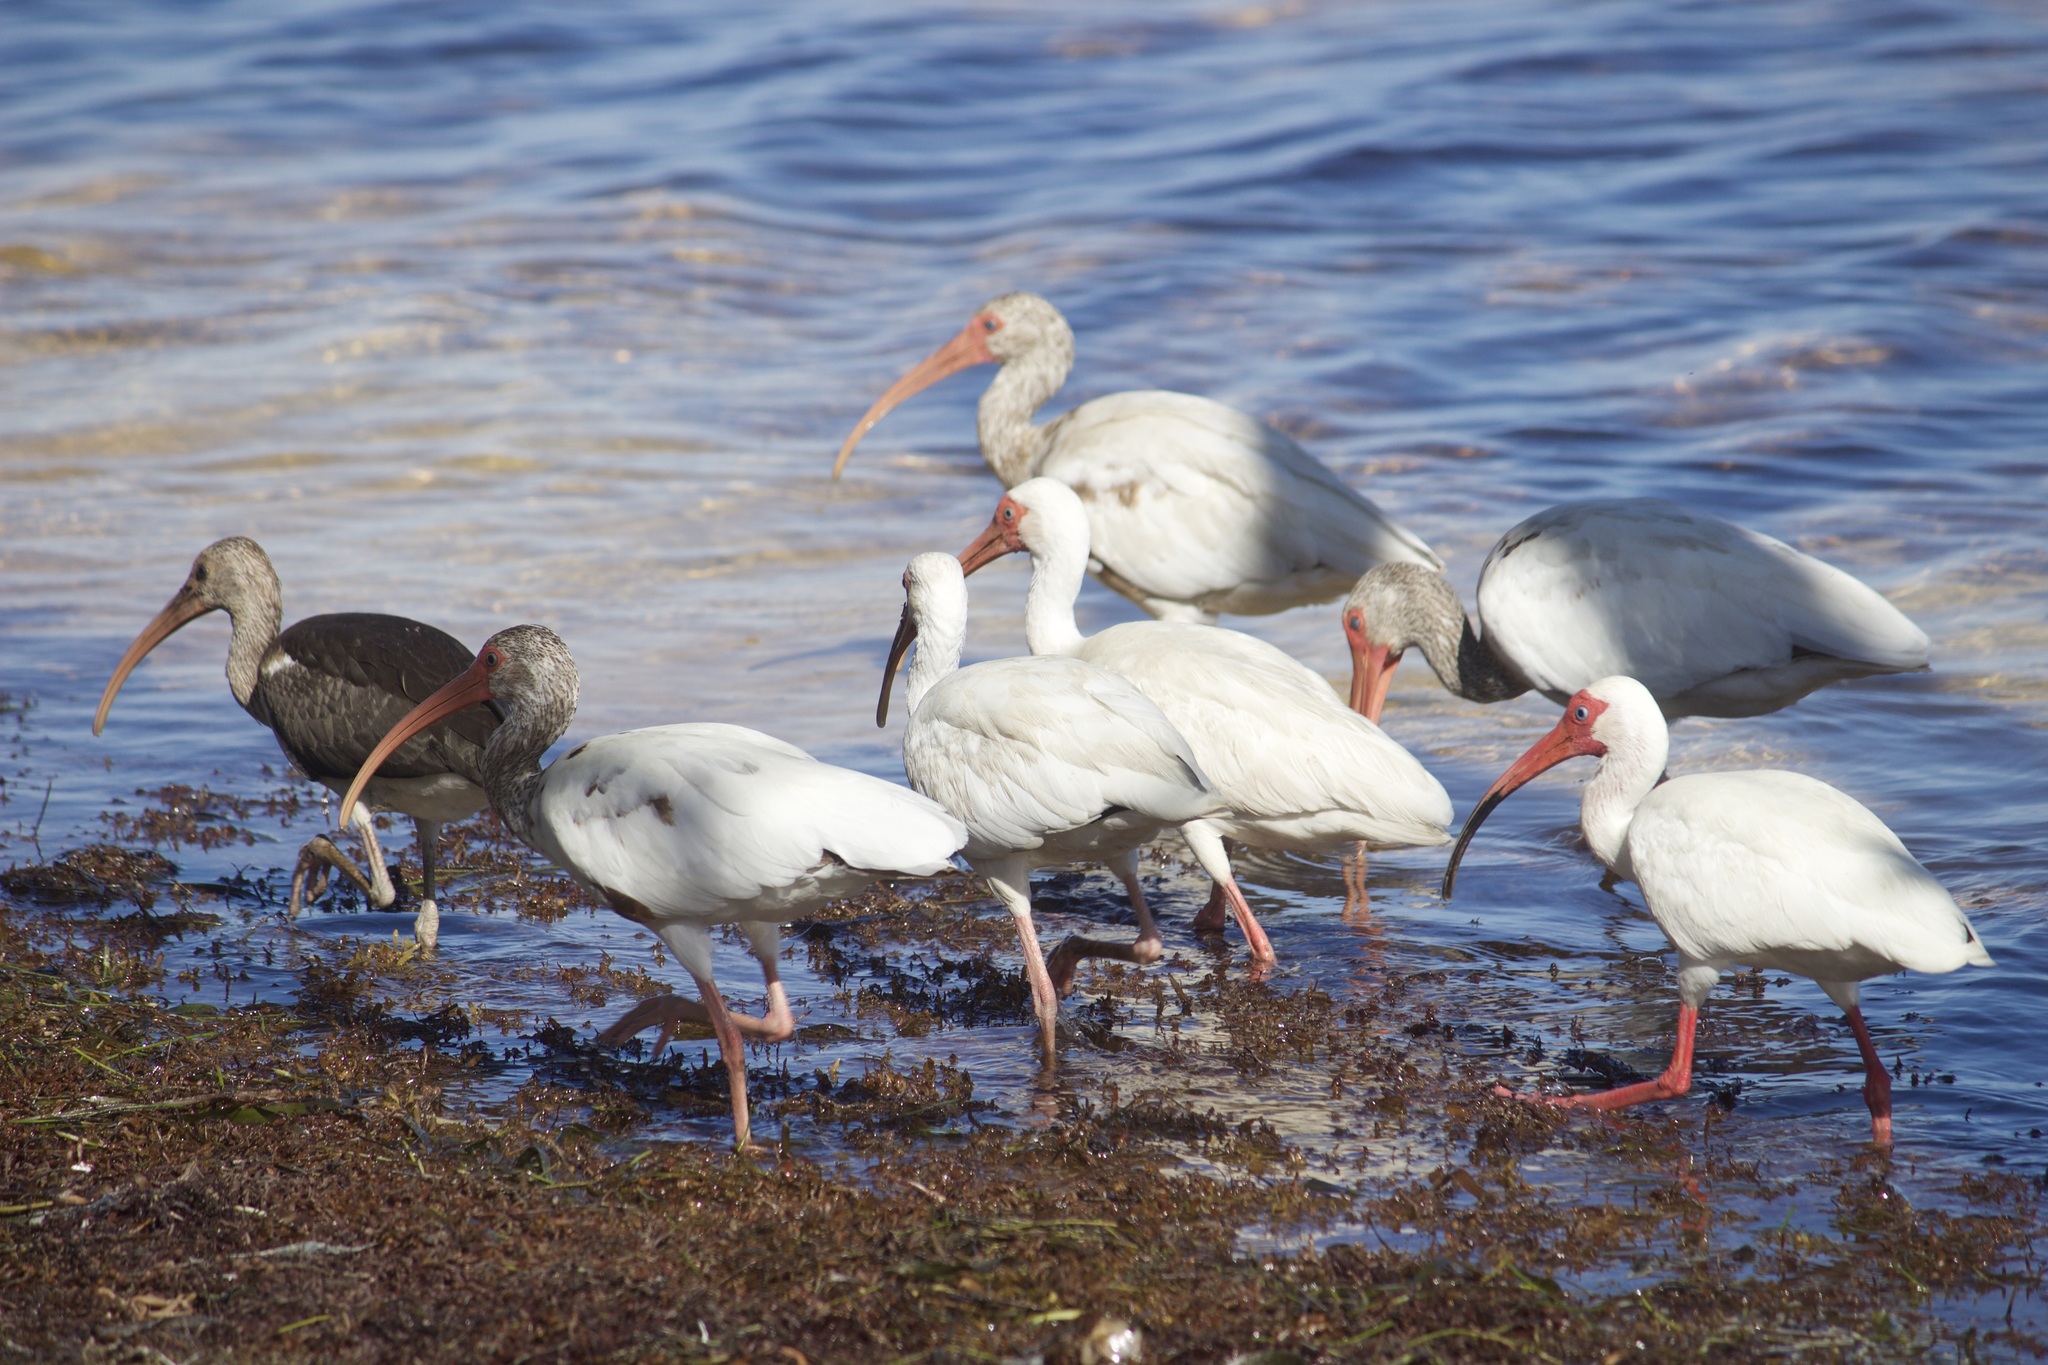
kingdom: Animalia
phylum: Chordata
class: Aves
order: Pelecaniformes
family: Threskiornithidae
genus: Eudocimus
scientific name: Eudocimus albus
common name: White ibis
